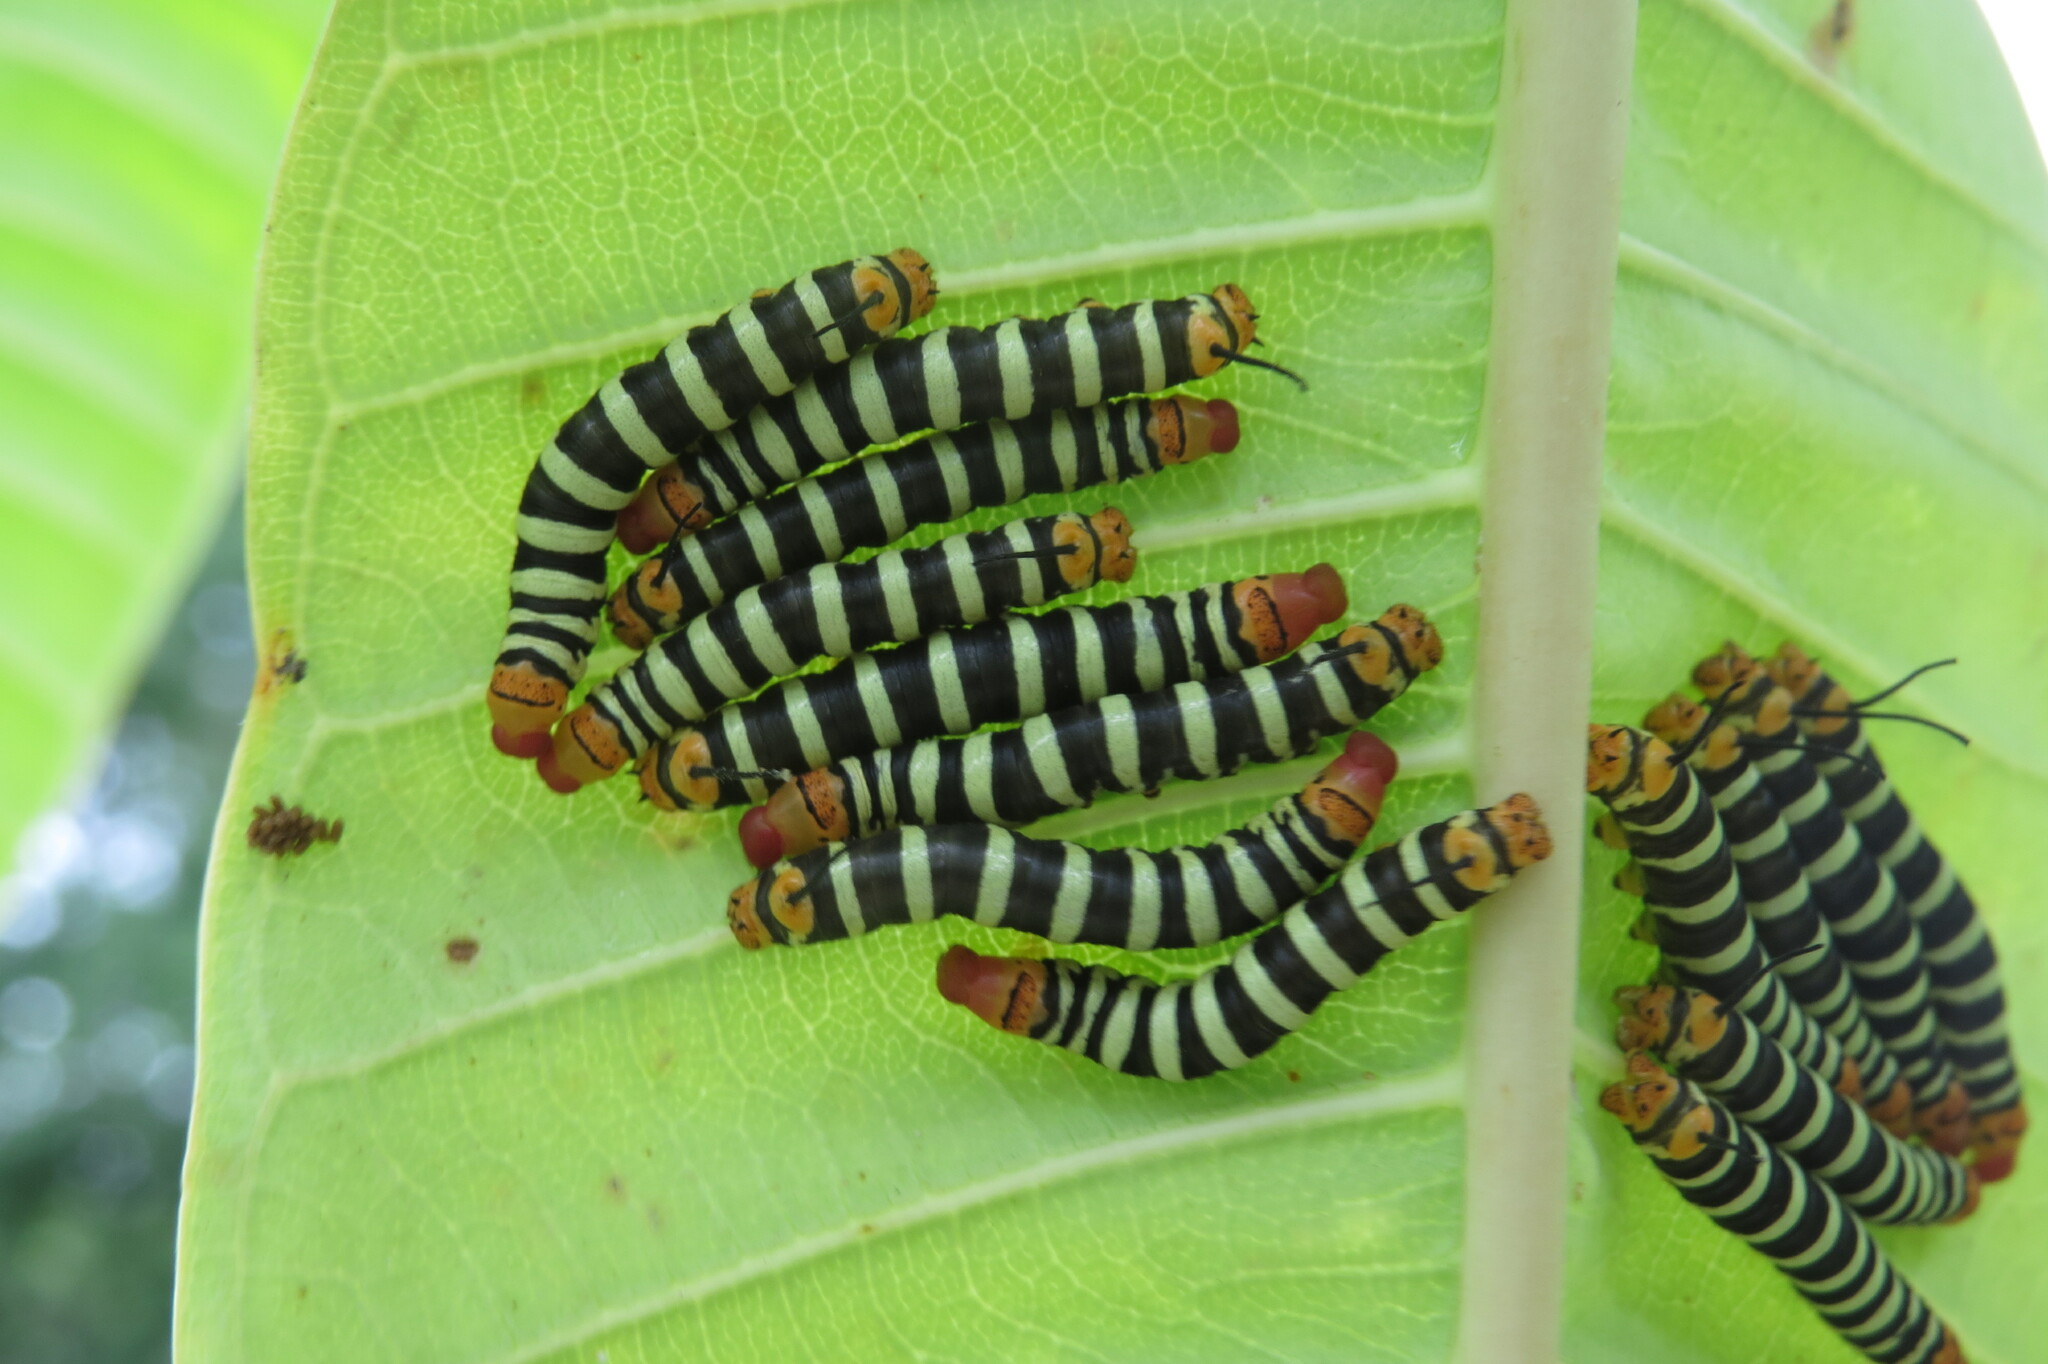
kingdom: Animalia
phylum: Arthropoda
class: Insecta
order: Lepidoptera
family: Sphingidae
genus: Pseudosphinx
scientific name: Pseudosphinx tetrio
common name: Tetrio sphinx
